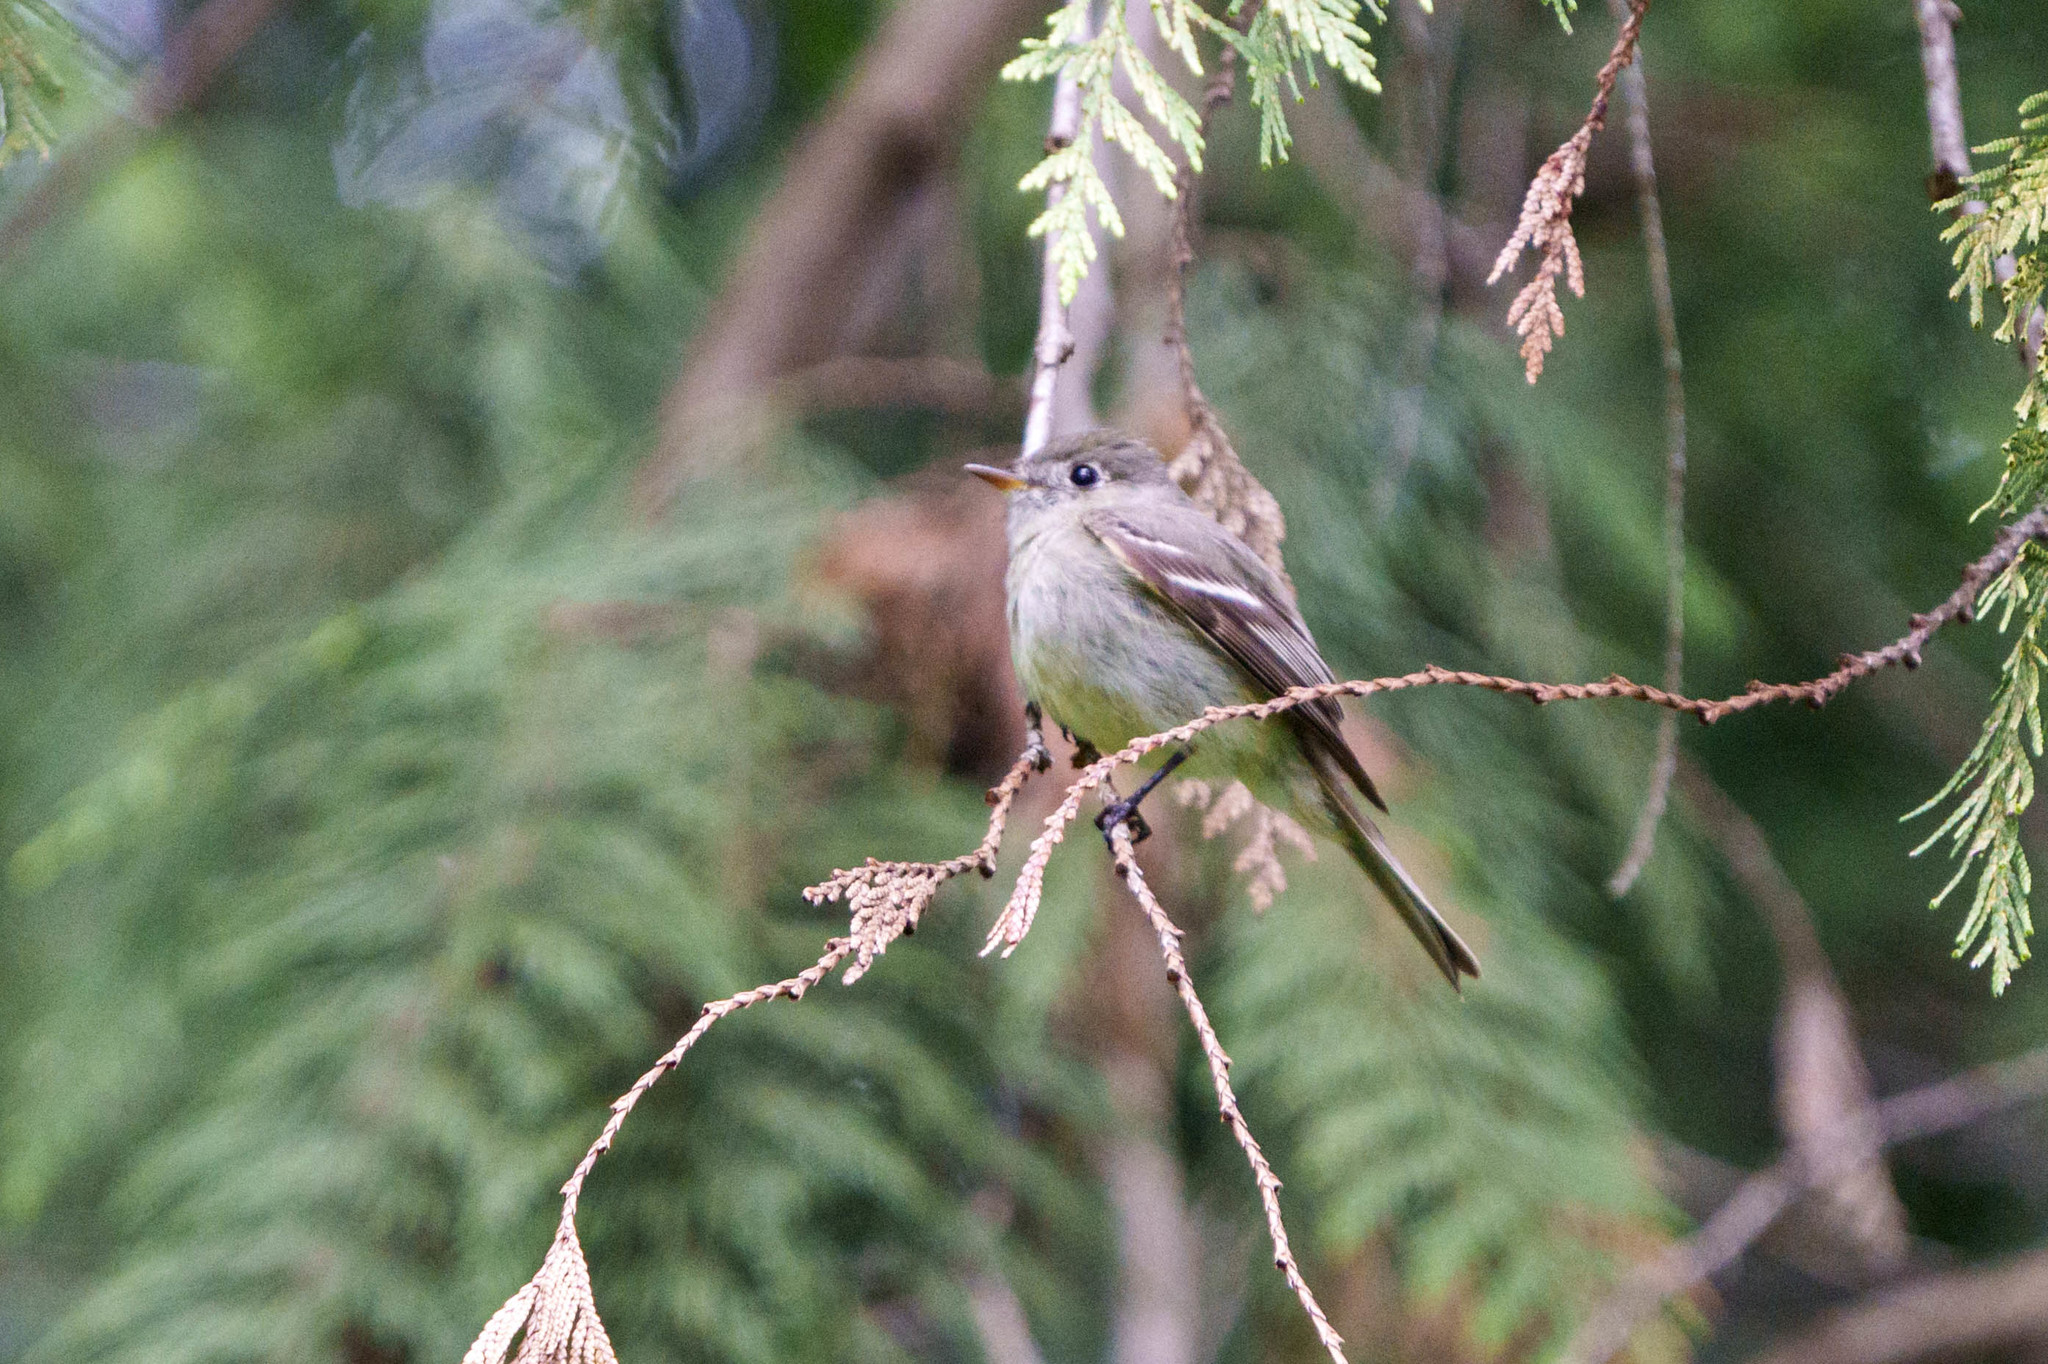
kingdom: Animalia
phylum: Chordata
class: Aves
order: Passeriformes
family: Tyrannidae
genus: Empidonax
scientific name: Empidonax hammondii
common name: Hammond's flycatcher
